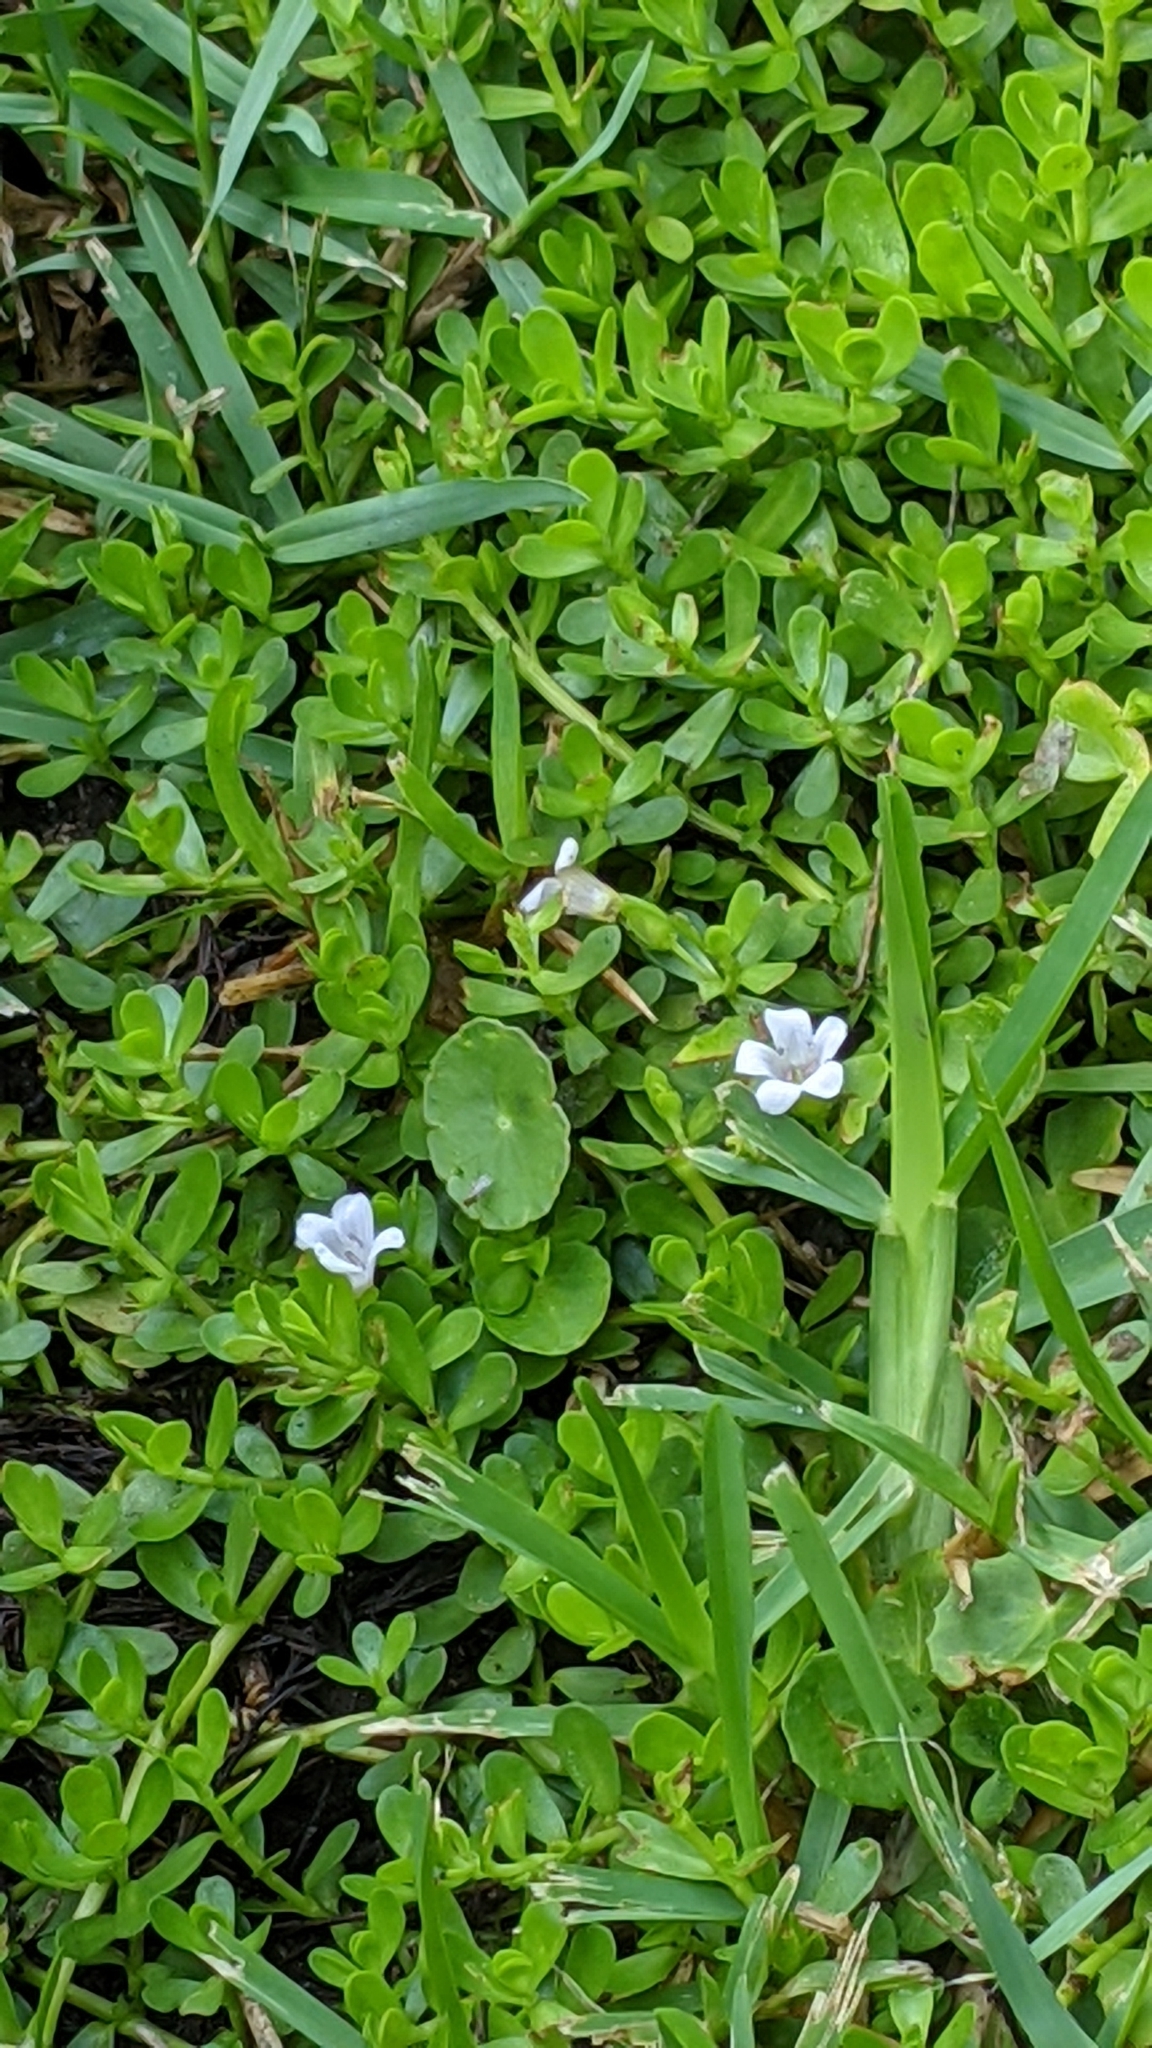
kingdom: Plantae
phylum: Tracheophyta
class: Magnoliopsida
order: Lamiales
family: Plantaginaceae
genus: Bacopa
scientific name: Bacopa monnieri
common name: Indian-pennywort
